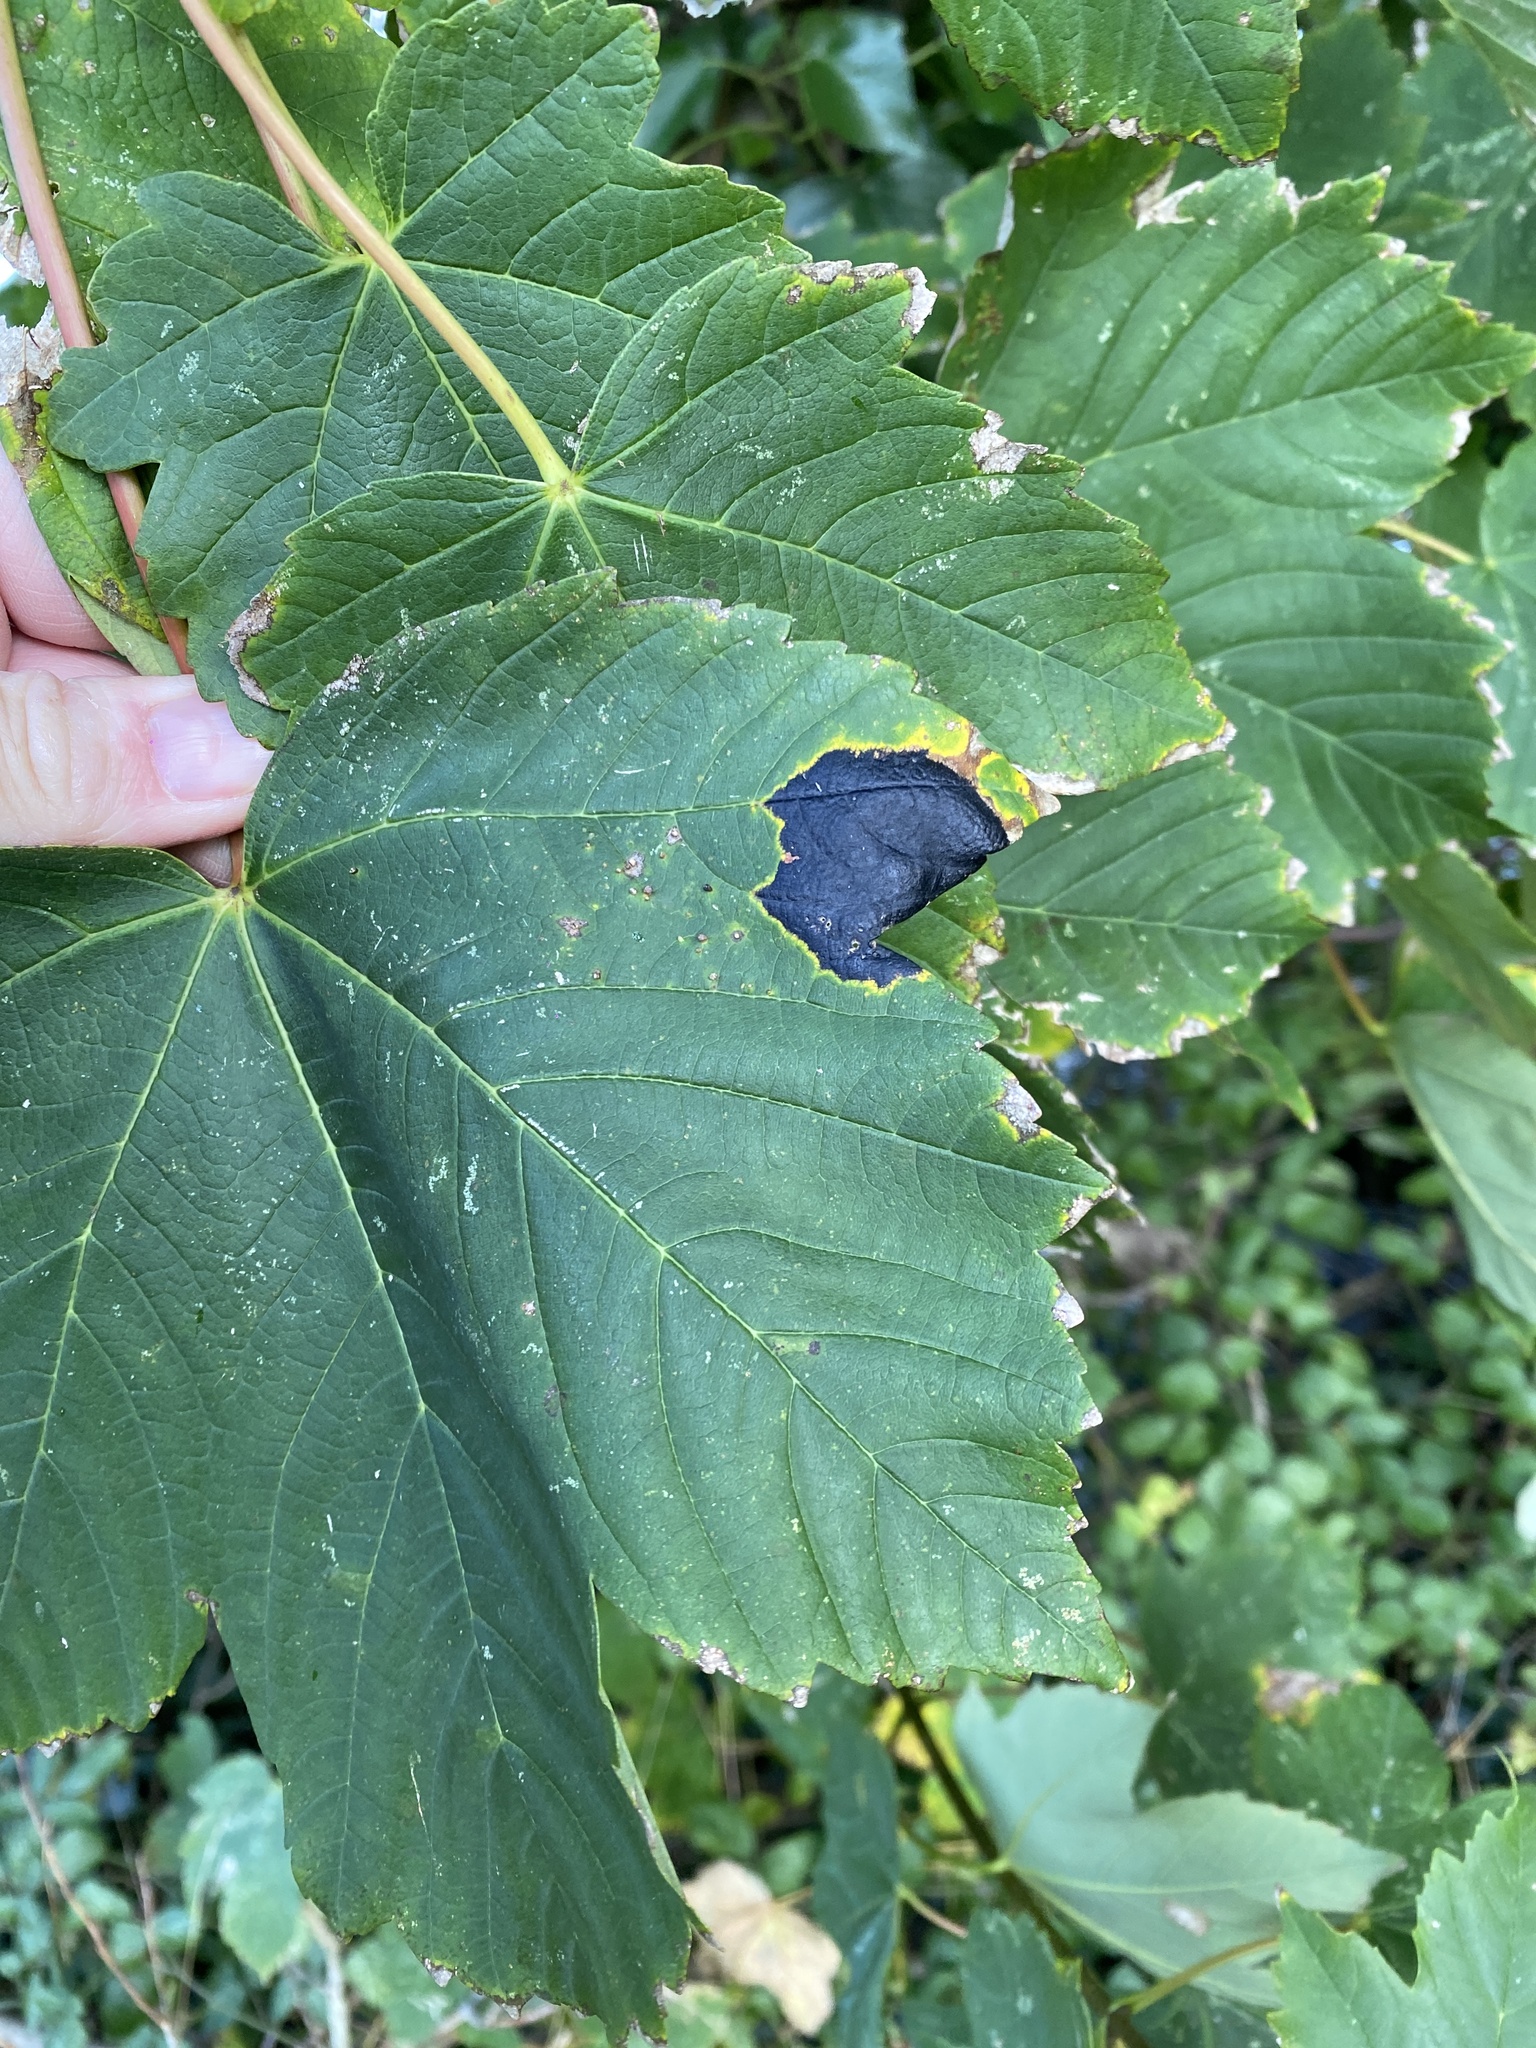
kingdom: Fungi
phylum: Ascomycota
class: Leotiomycetes
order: Rhytismatales
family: Rhytismataceae
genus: Rhytisma
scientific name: Rhytisma acerinum
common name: European tar spot
